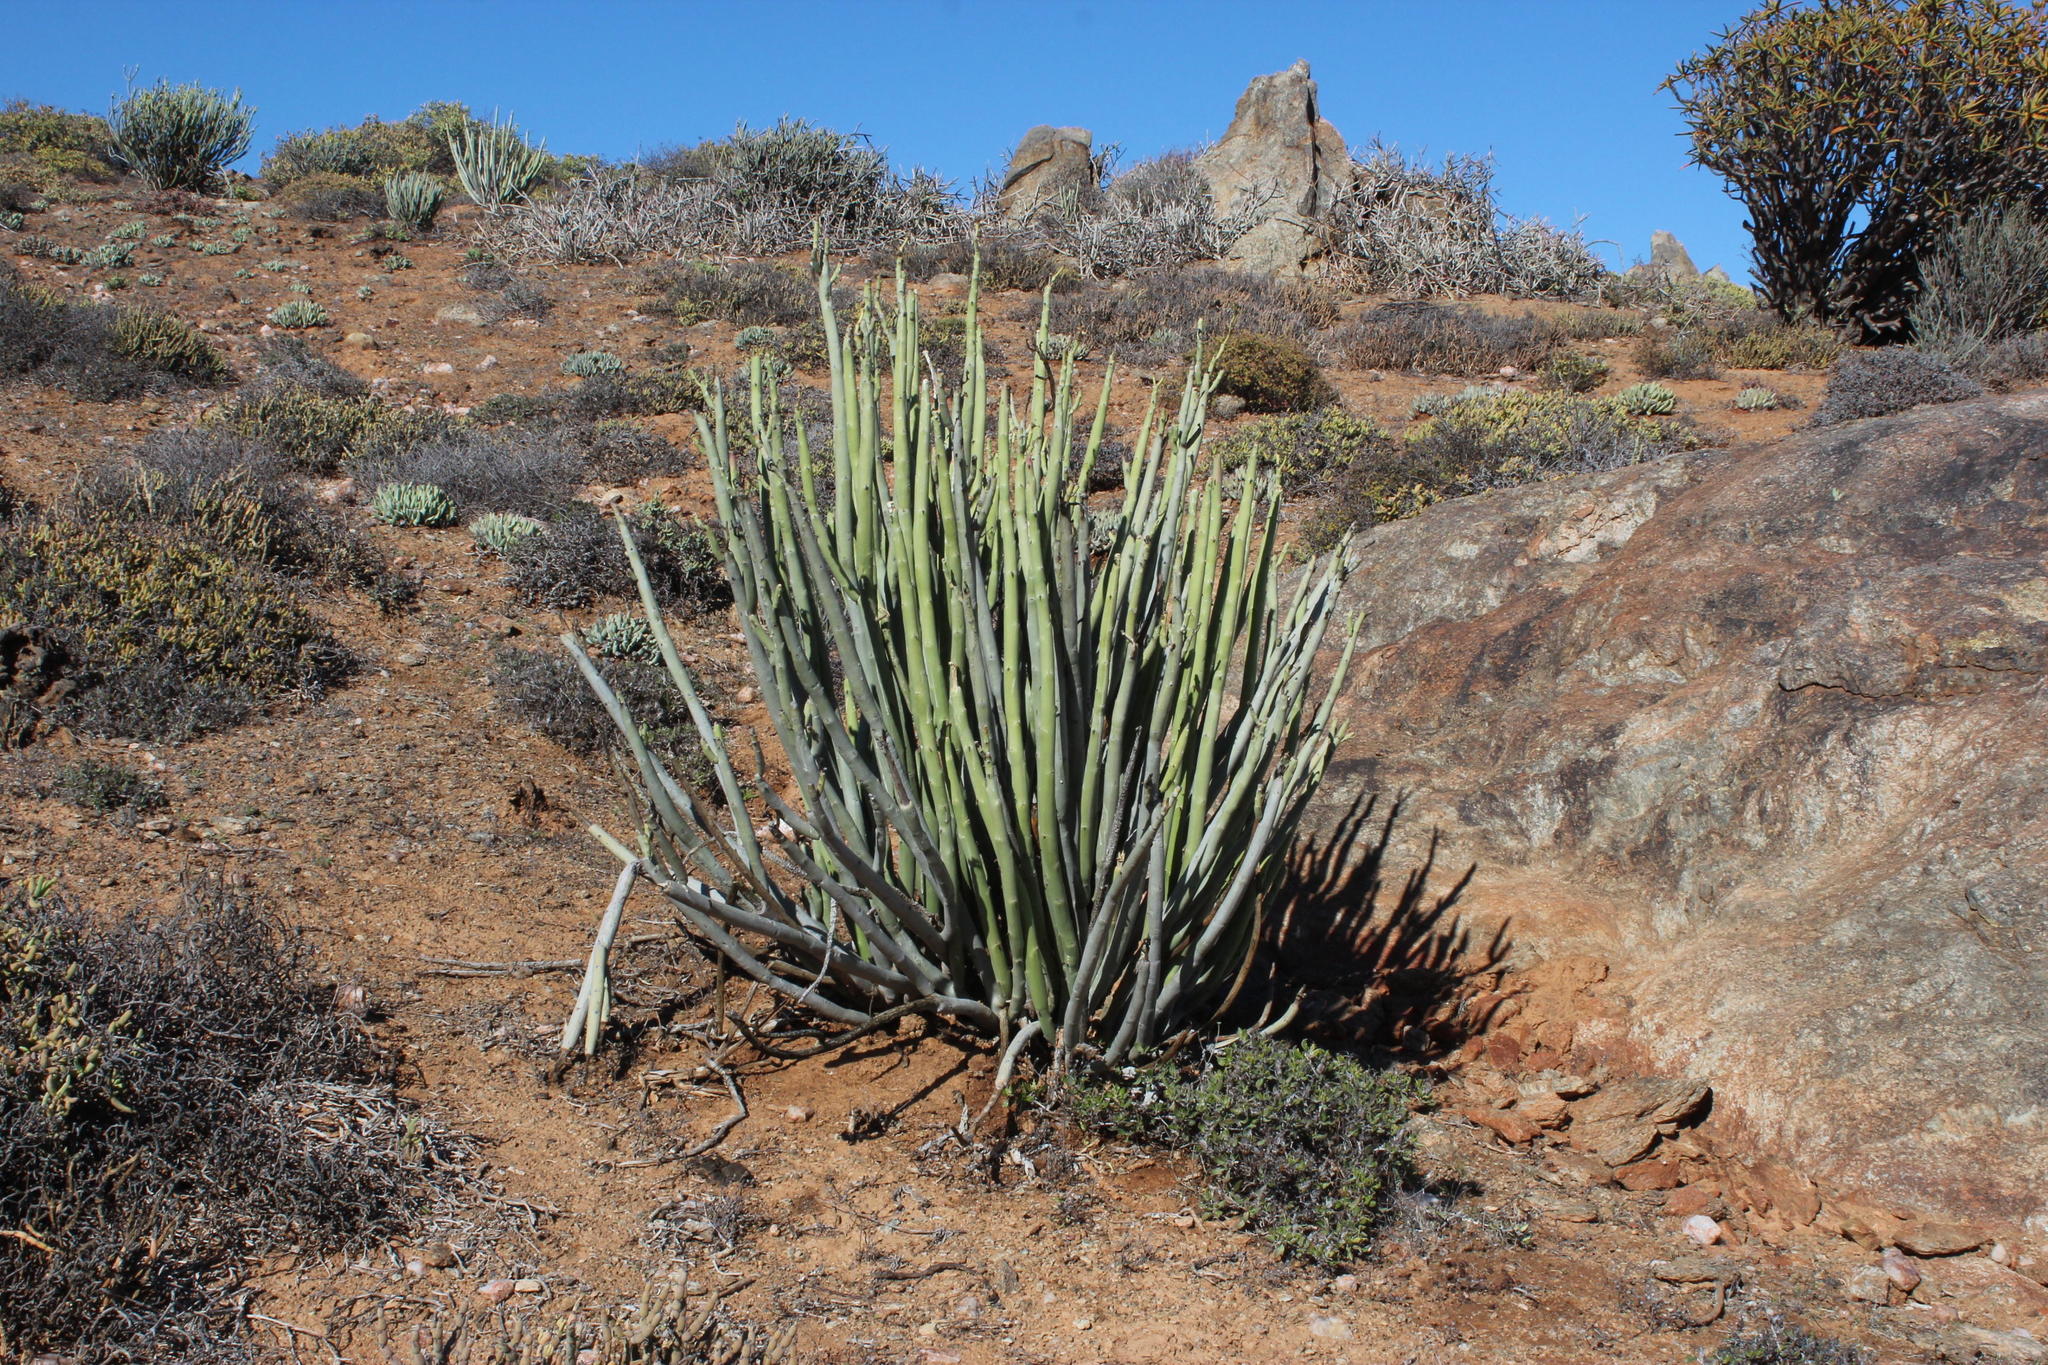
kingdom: Plantae
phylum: Tracheophyta
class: Magnoliopsida
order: Malpighiales
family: Euphorbiaceae
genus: Euphorbia
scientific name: Euphorbia dregeana
